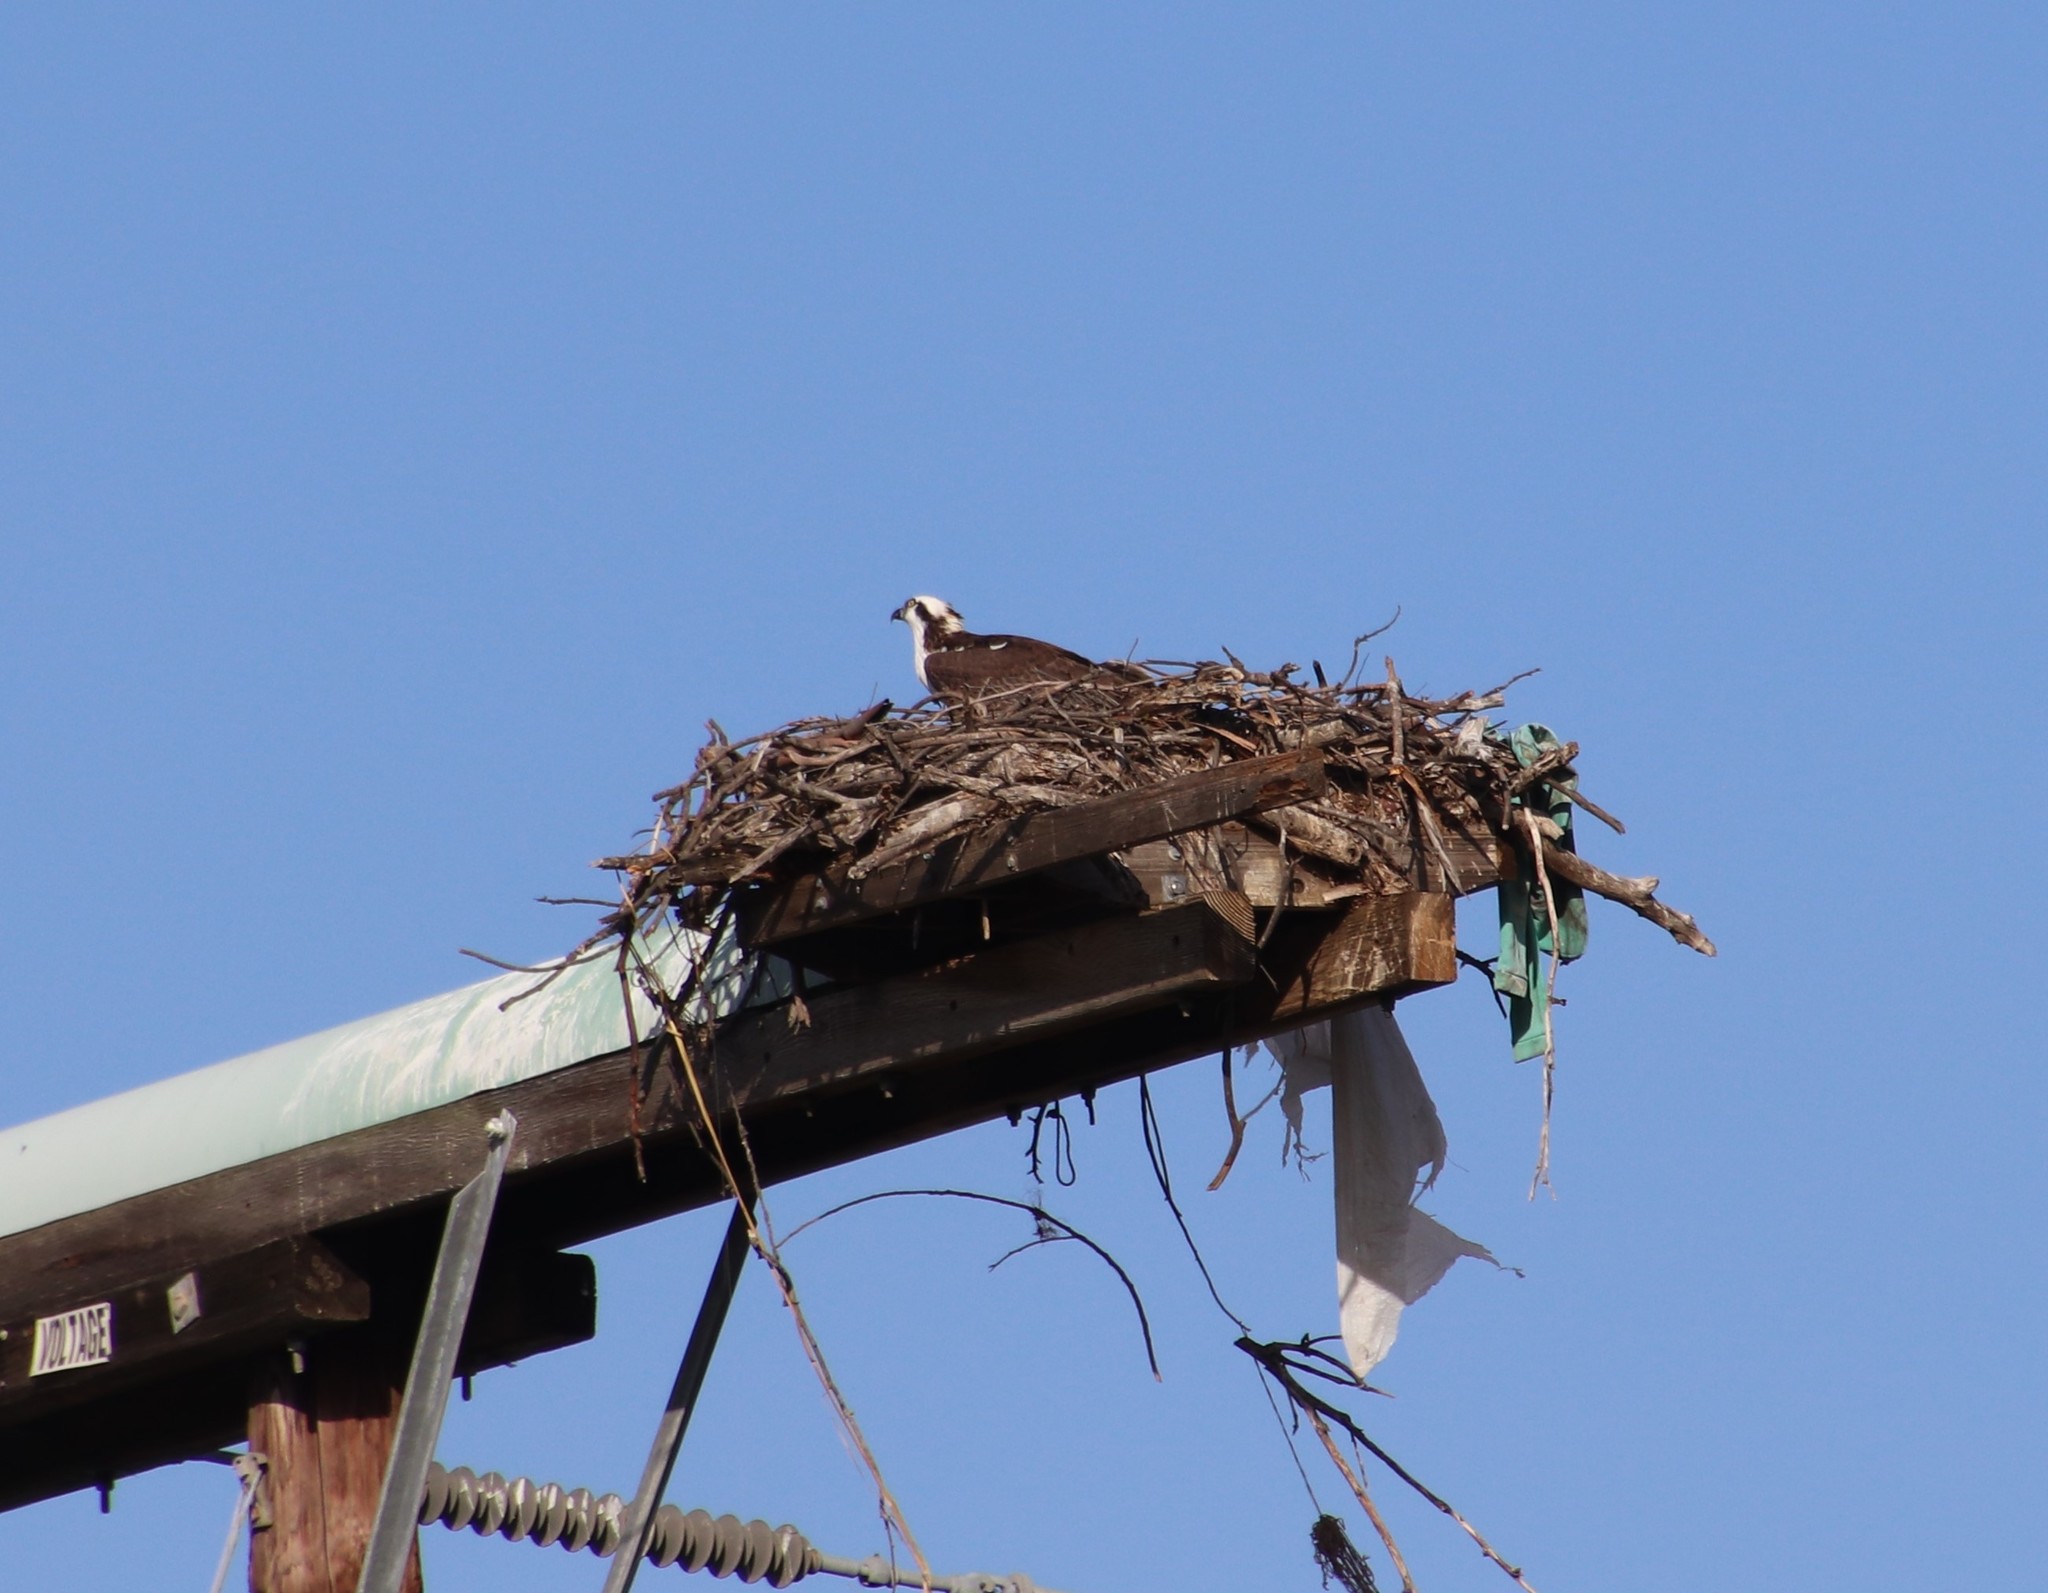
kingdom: Animalia
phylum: Chordata
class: Aves
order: Accipitriformes
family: Pandionidae
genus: Pandion
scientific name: Pandion haliaetus
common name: Osprey
